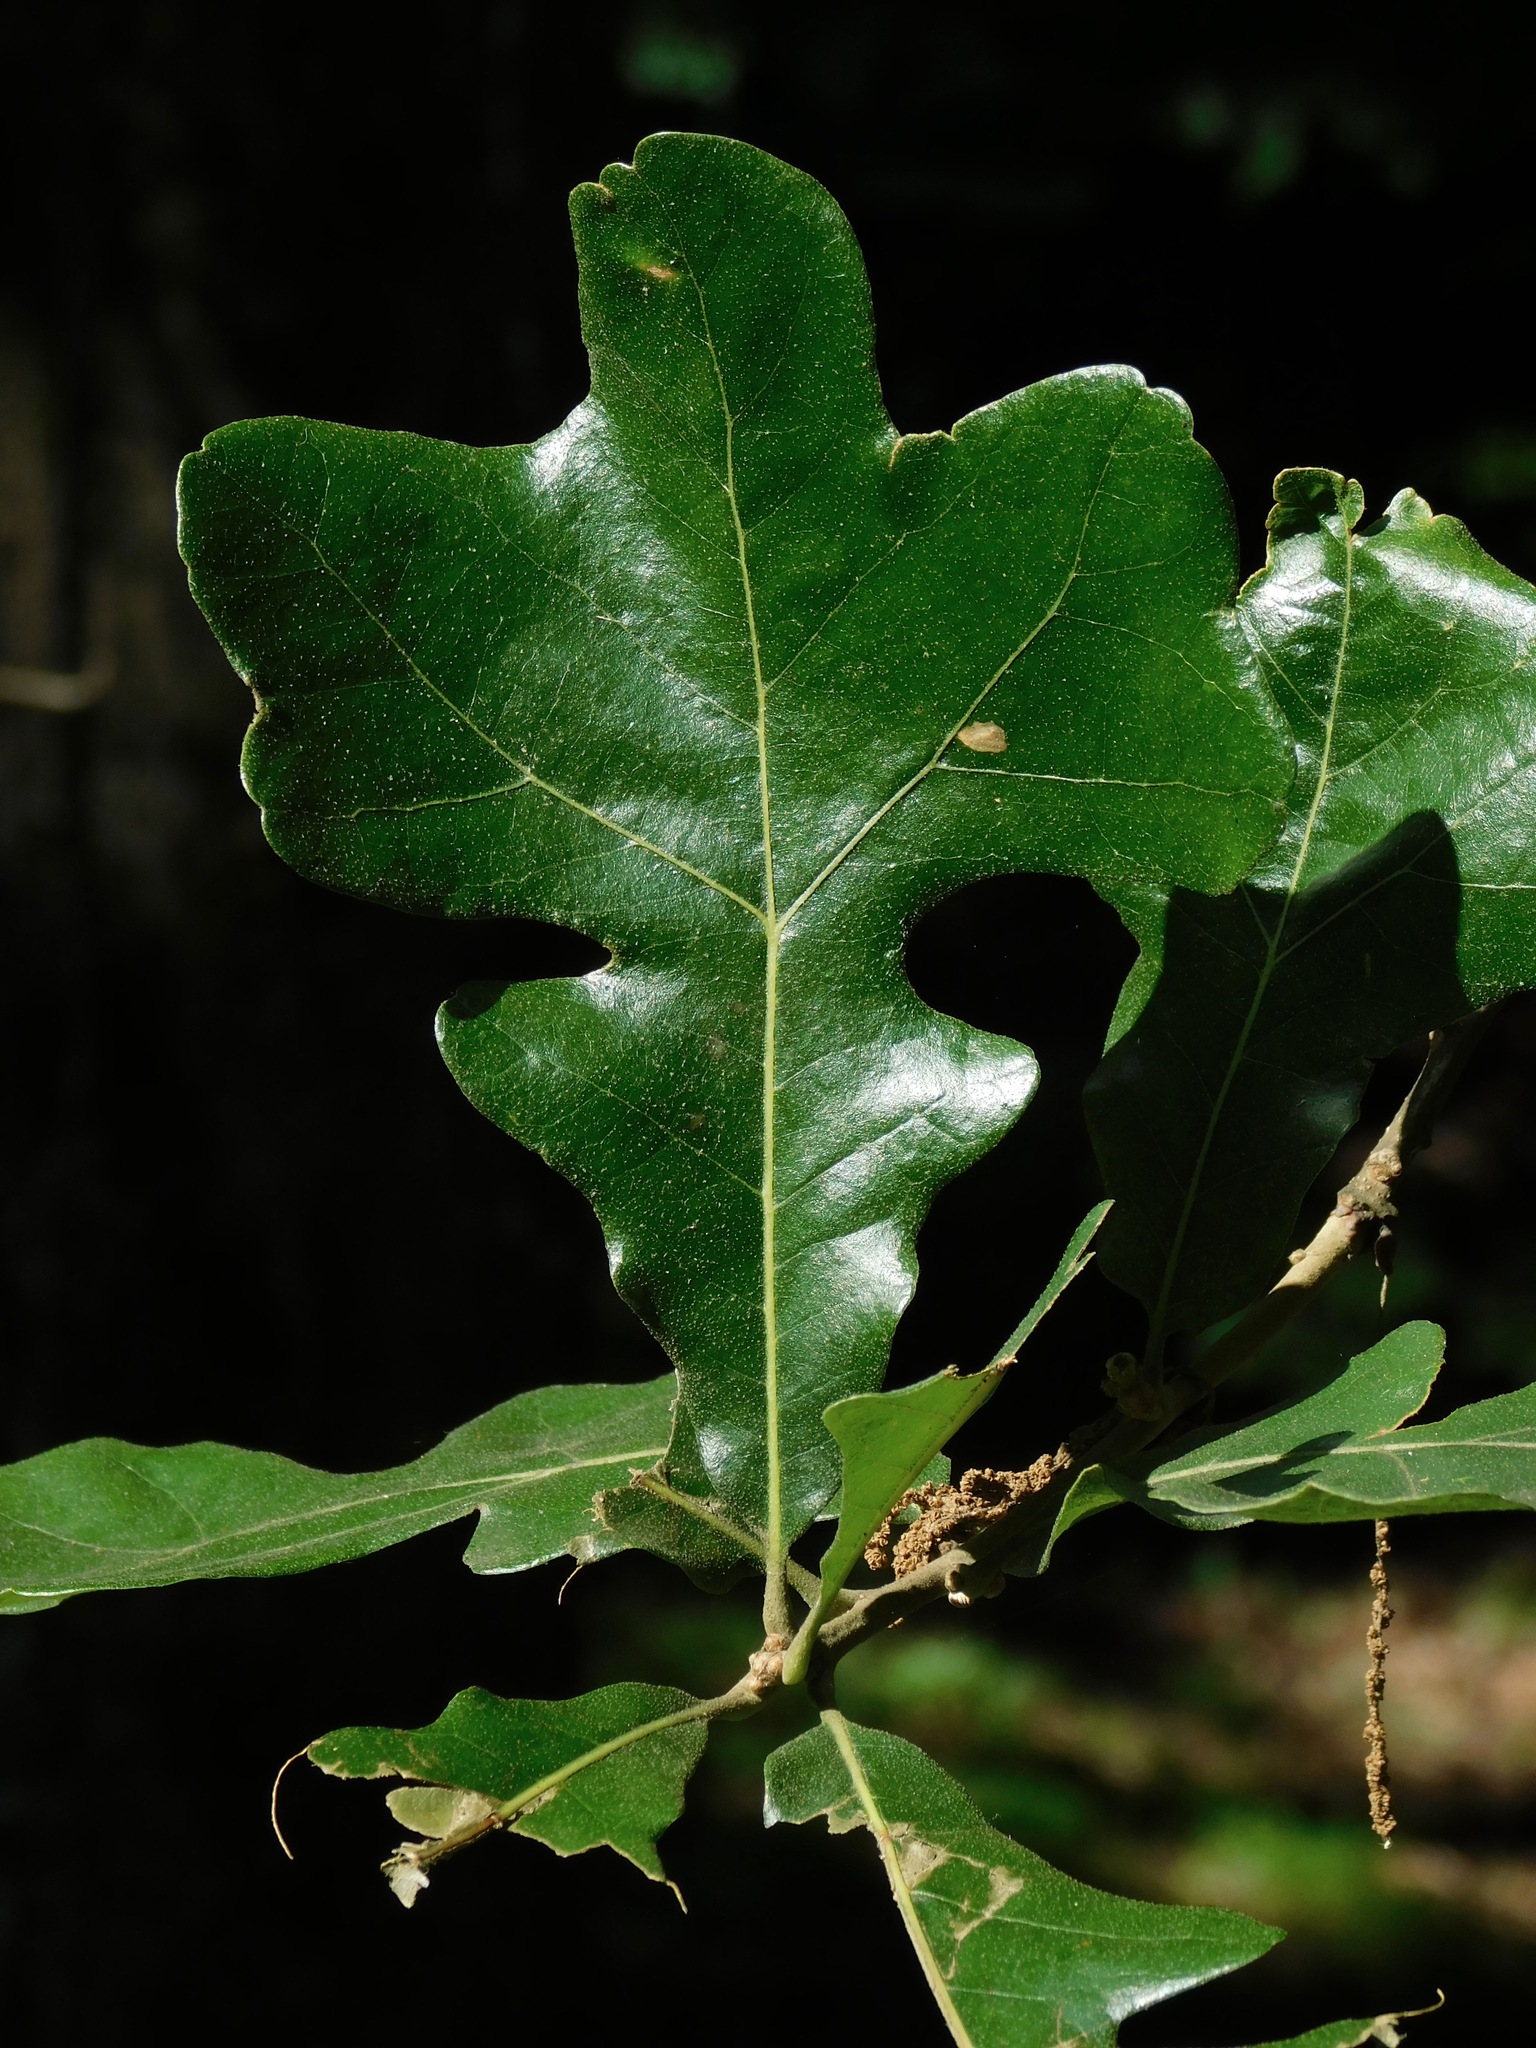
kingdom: Plantae
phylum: Tracheophyta
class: Magnoliopsida
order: Fagales
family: Fagaceae
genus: Quercus
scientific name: Quercus stellata
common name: Post oak
